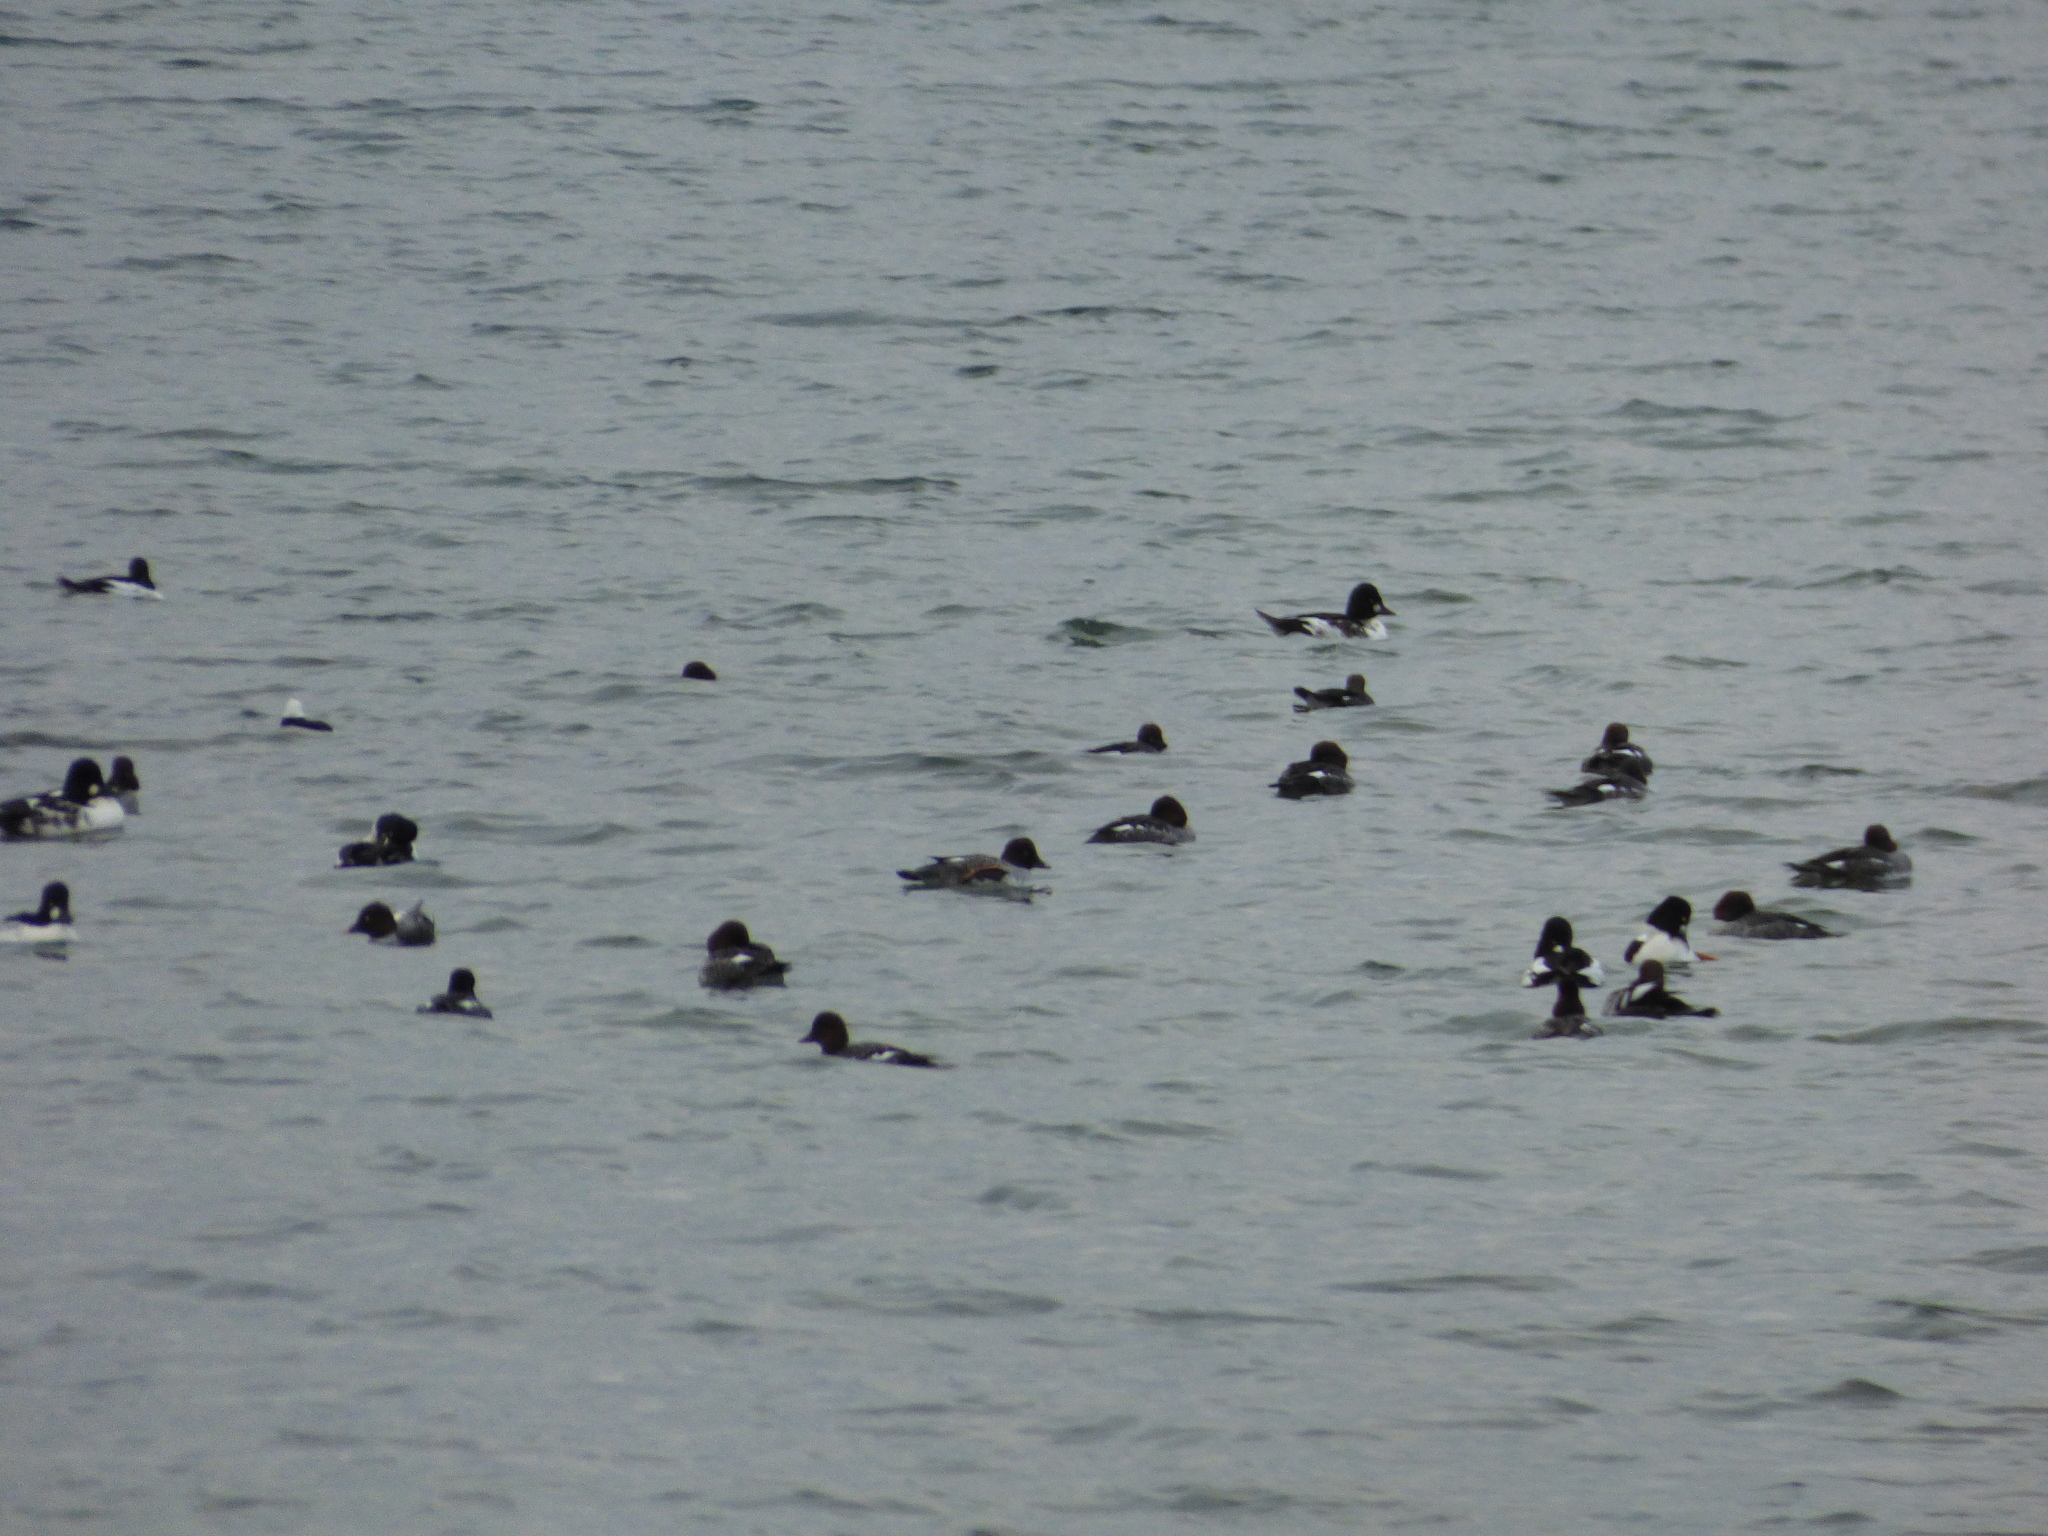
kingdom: Animalia
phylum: Chordata
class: Aves
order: Anseriformes
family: Anatidae
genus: Bucephala
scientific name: Bucephala clangula
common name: Common goldeneye
